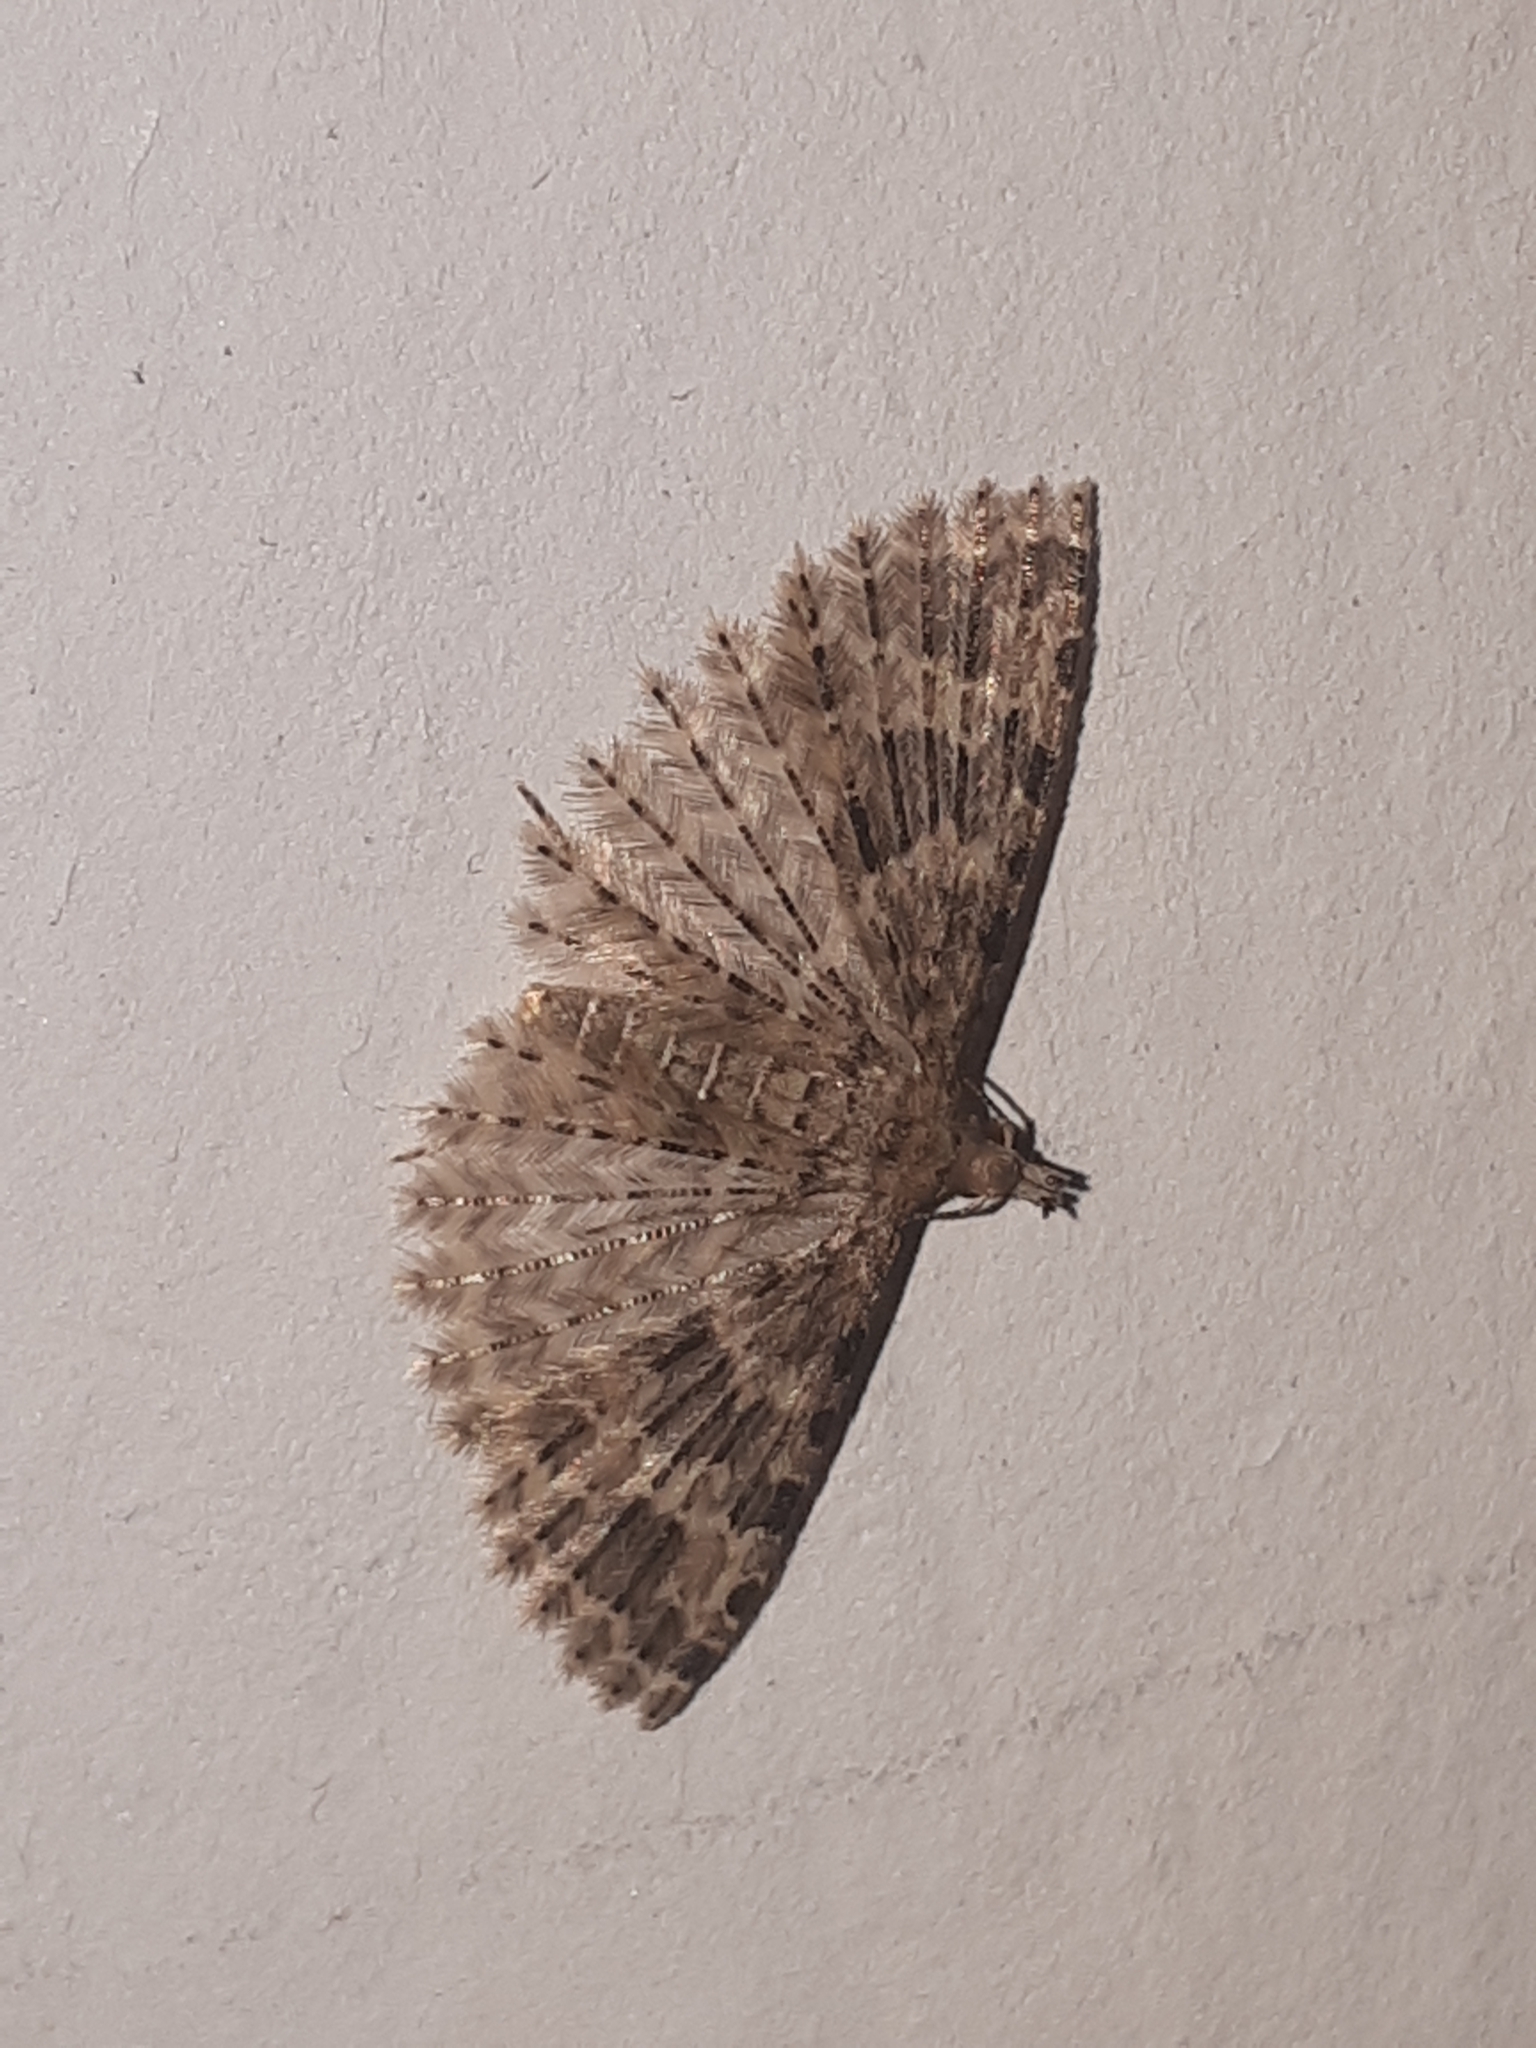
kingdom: Animalia
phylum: Arthropoda
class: Insecta
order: Lepidoptera
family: Alucitidae
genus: Alucita
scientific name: Alucita hexadactyla
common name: Twenty-plume moth
